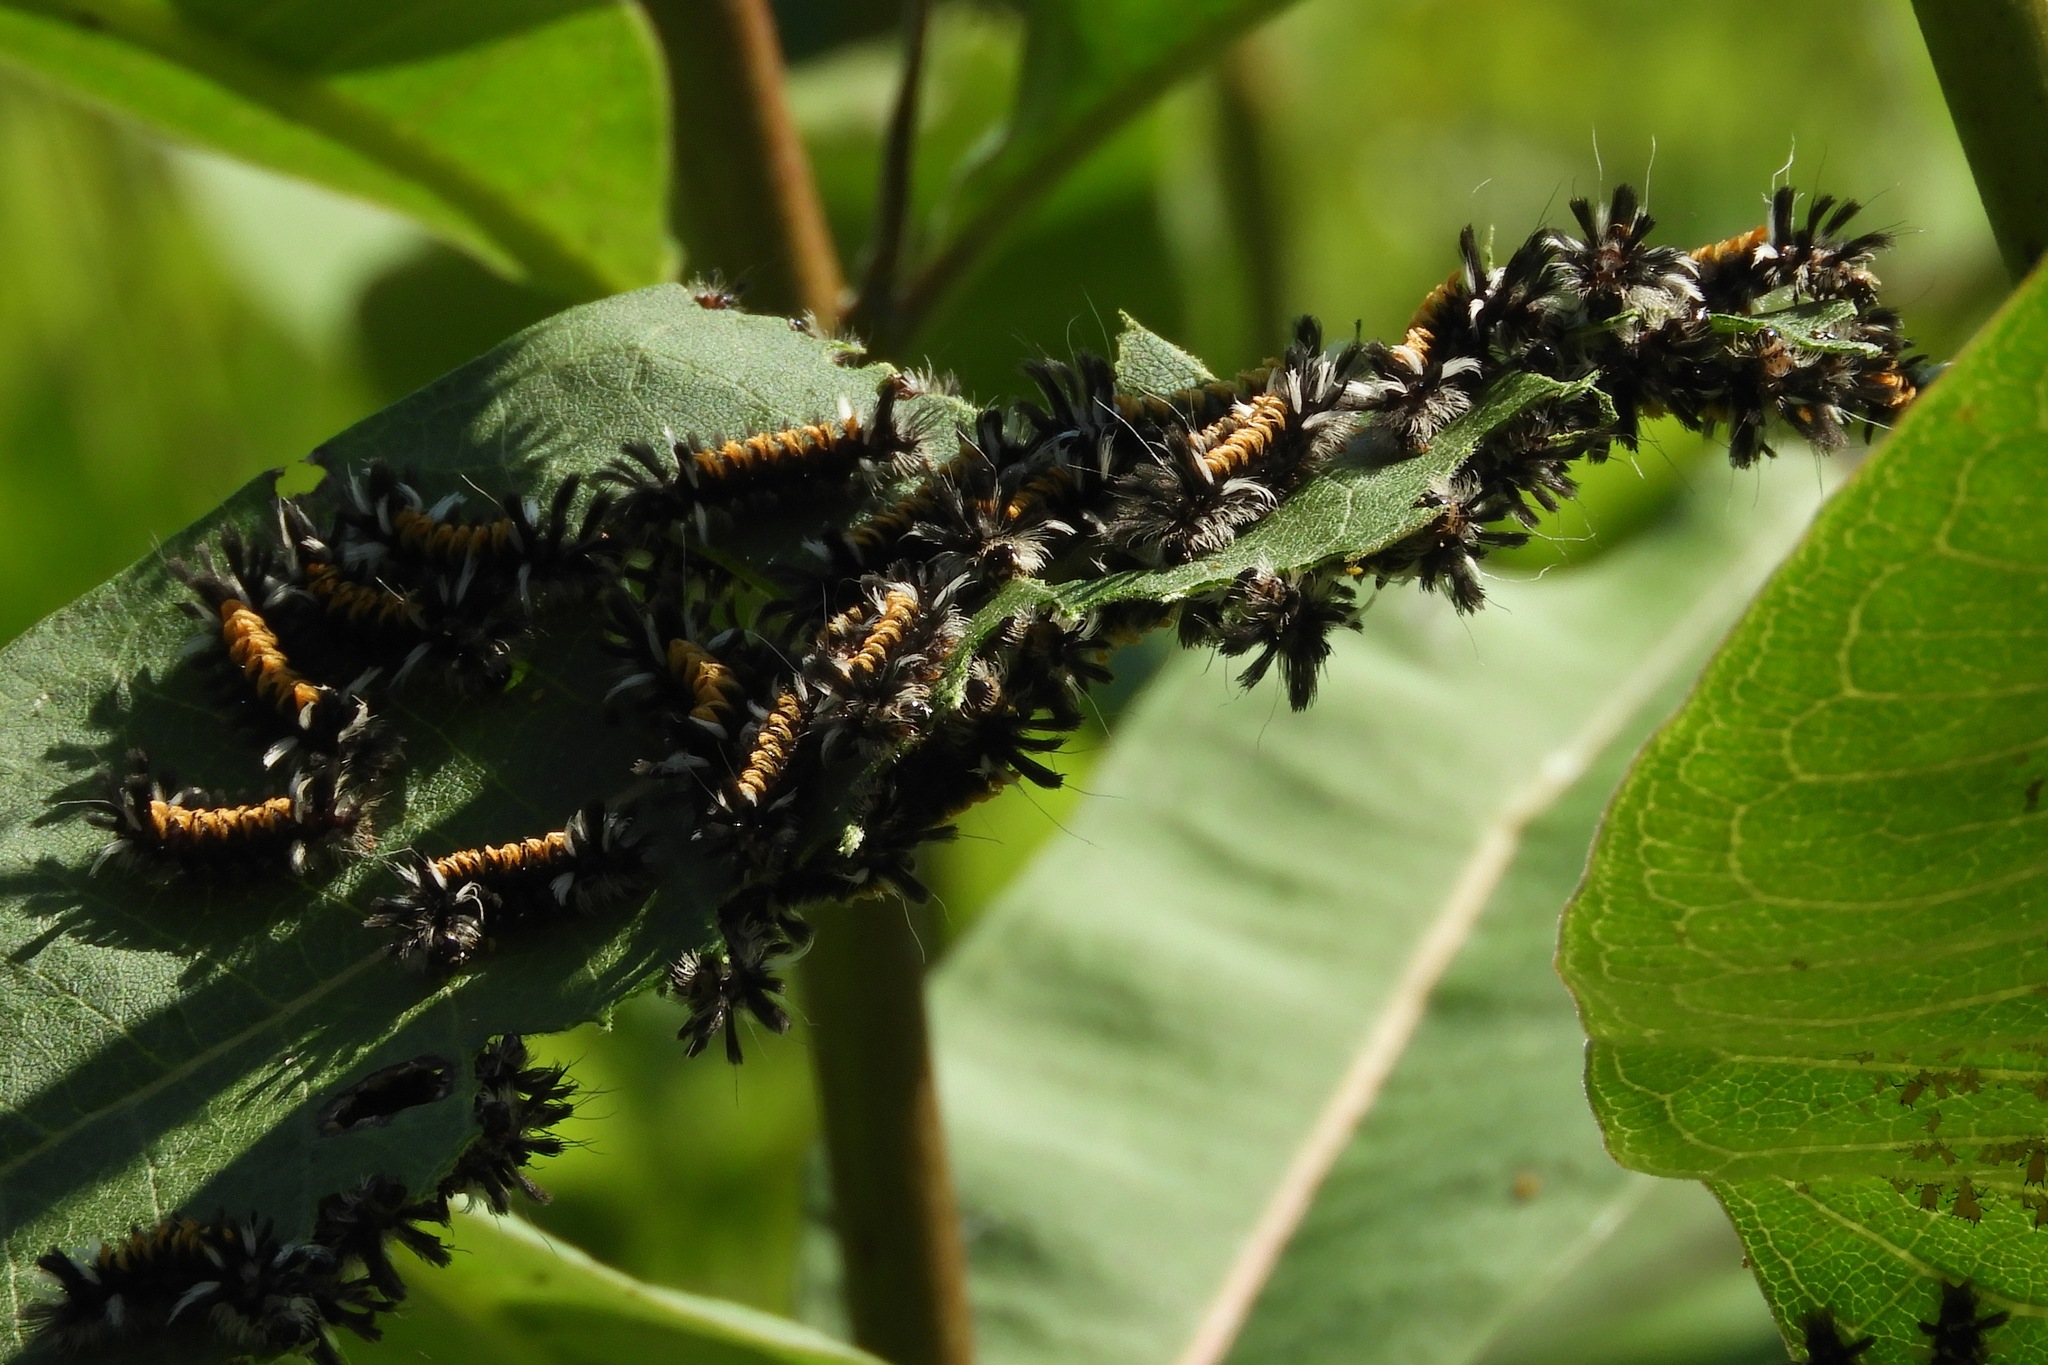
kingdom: Animalia
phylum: Arthropoda
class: Insecta
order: Lepidoptera
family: Erebidae
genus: Euchaetes
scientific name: Euchaetes egle
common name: Milkweed tussock moth
